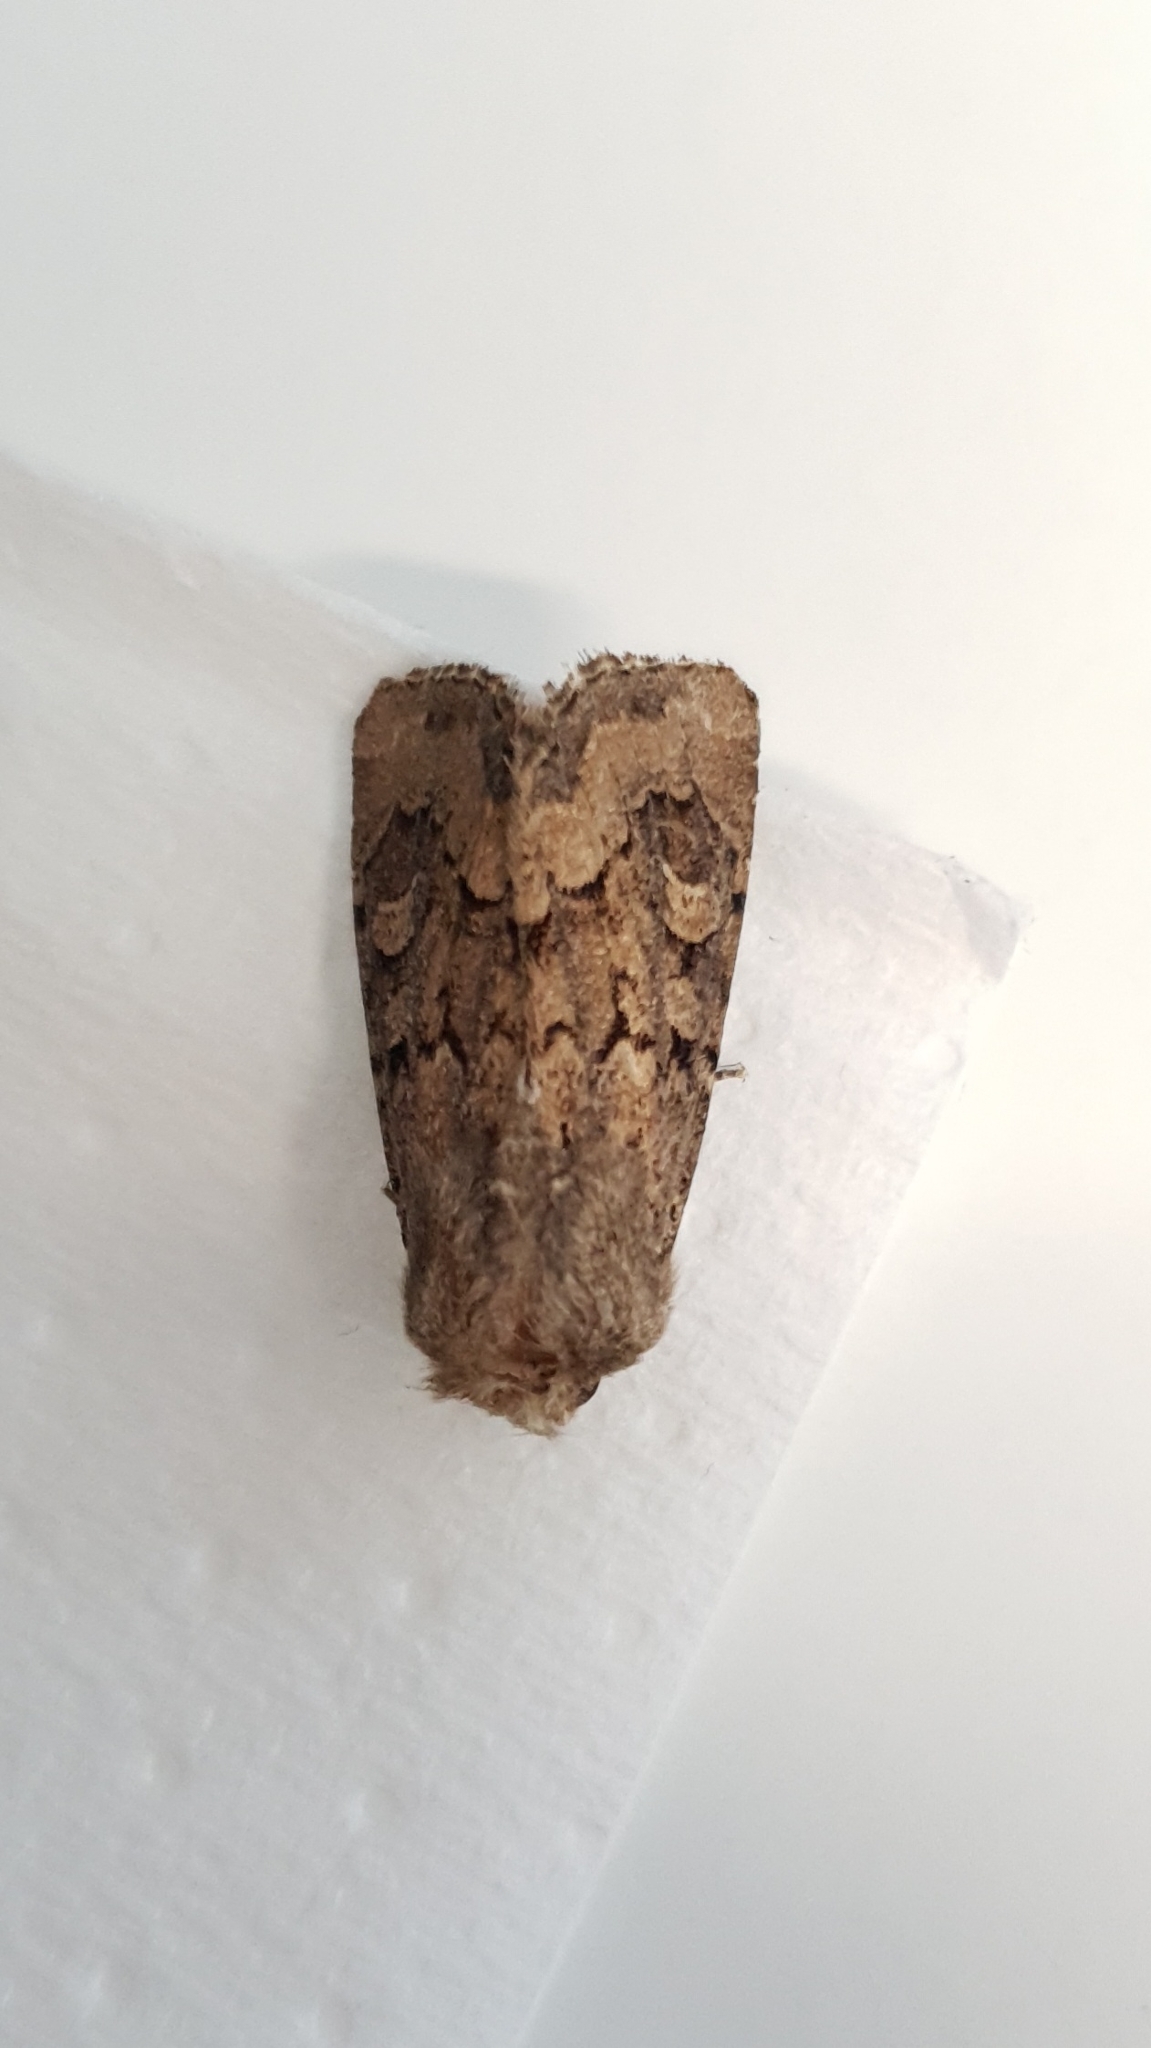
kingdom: Animalia
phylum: Arthropoda
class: Insecta
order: Lepidoptera
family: Noctuidae
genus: Luperina
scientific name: Luperina testacea
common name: Flounced rustic
